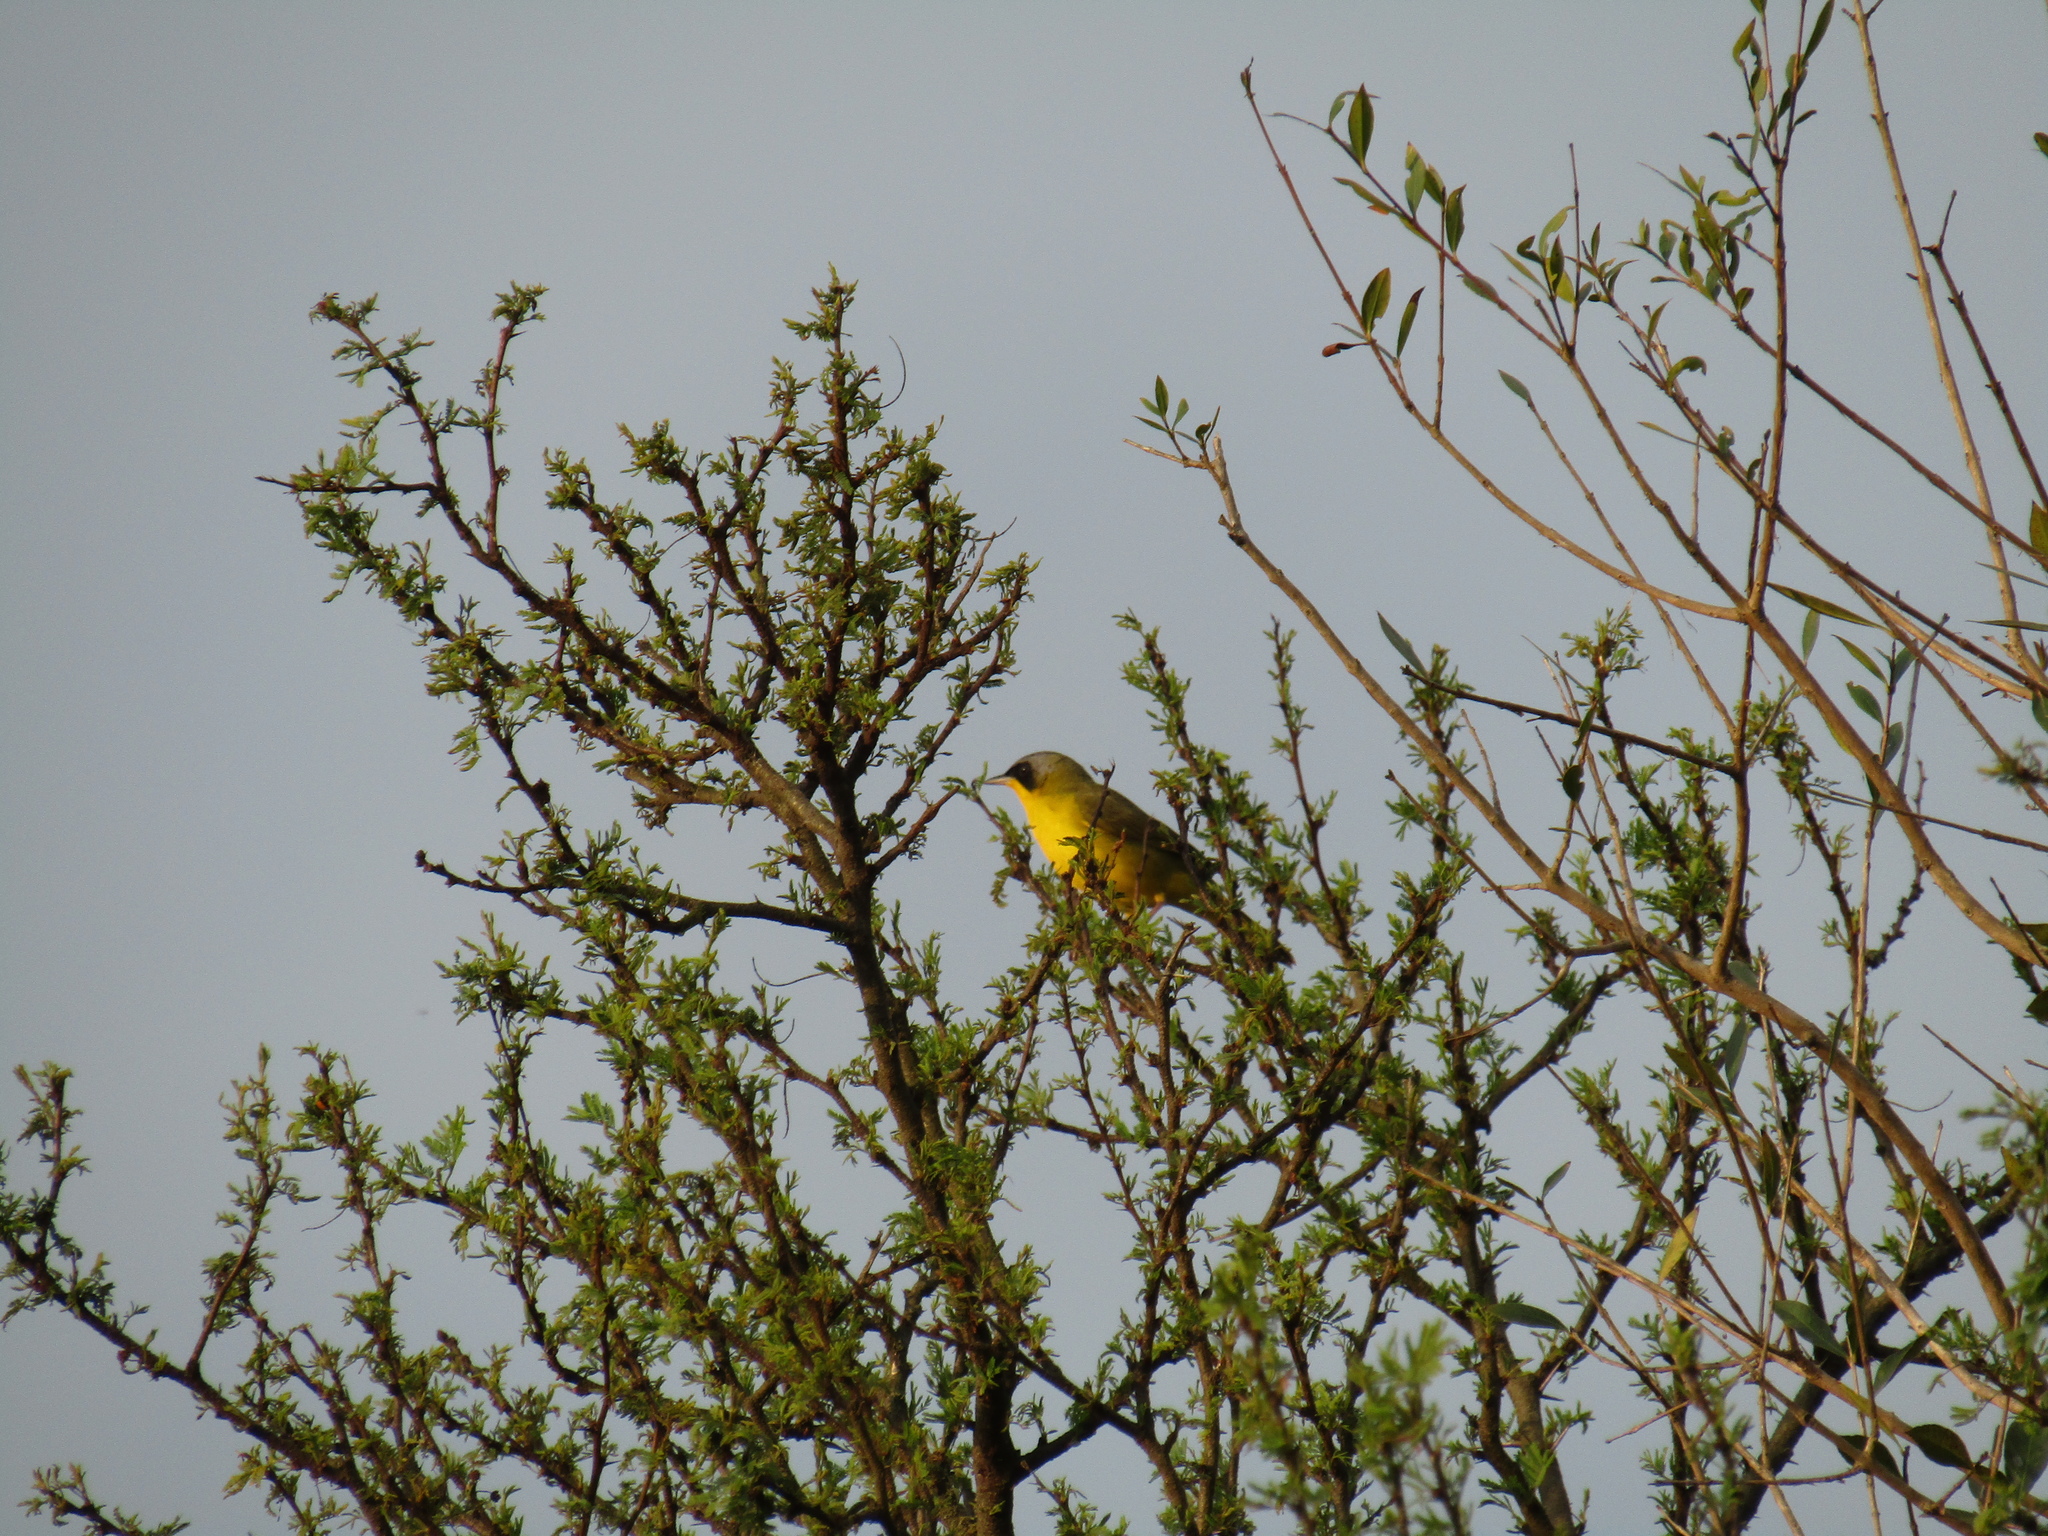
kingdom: Animalia
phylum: Chordata
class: Aves
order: Passeriformes
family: Parulidae
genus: Geothlypis
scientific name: Geothlypis velata
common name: Southern yellowthroat
